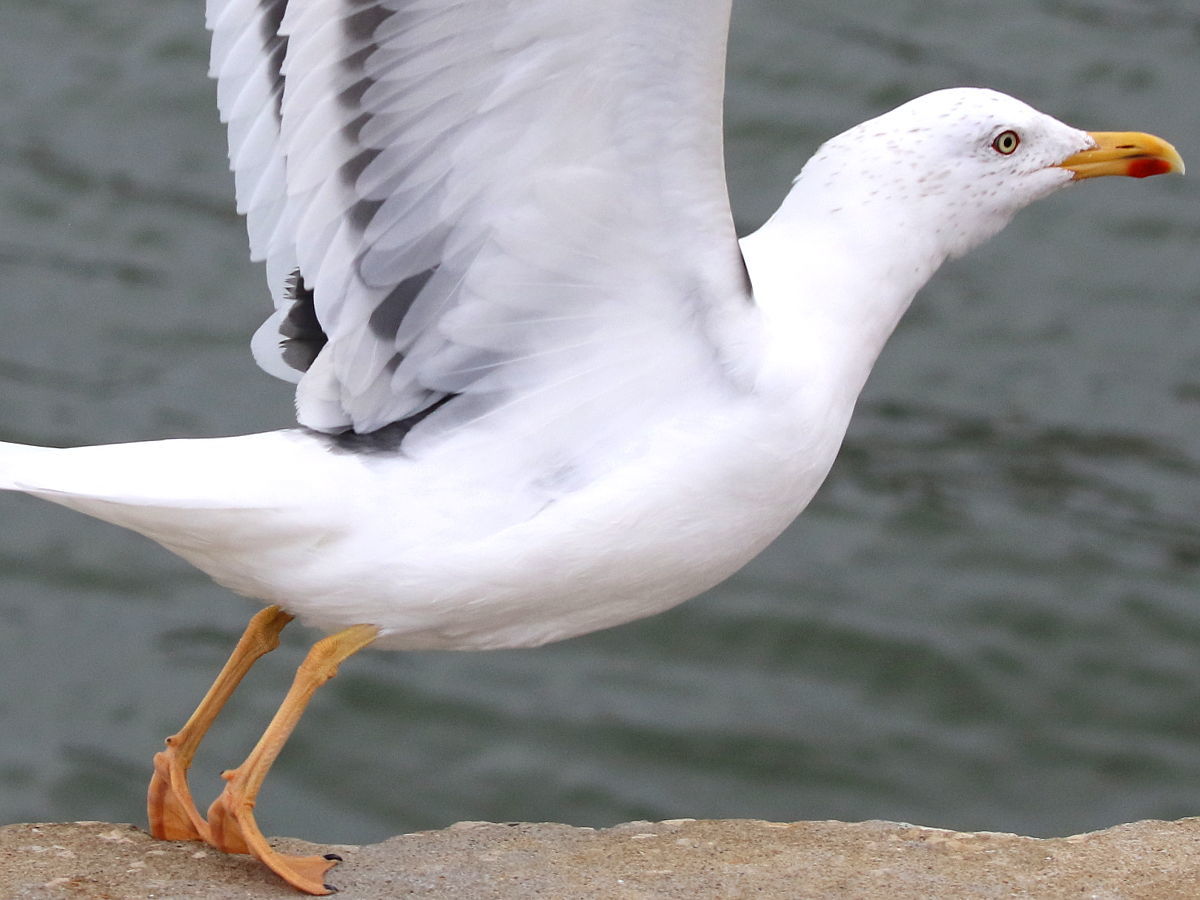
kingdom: Animalia
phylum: Chordata
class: Aves
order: Charadriiformes
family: Laridae
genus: Larus
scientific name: Larus fuscus
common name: Lesser black-backed gull
